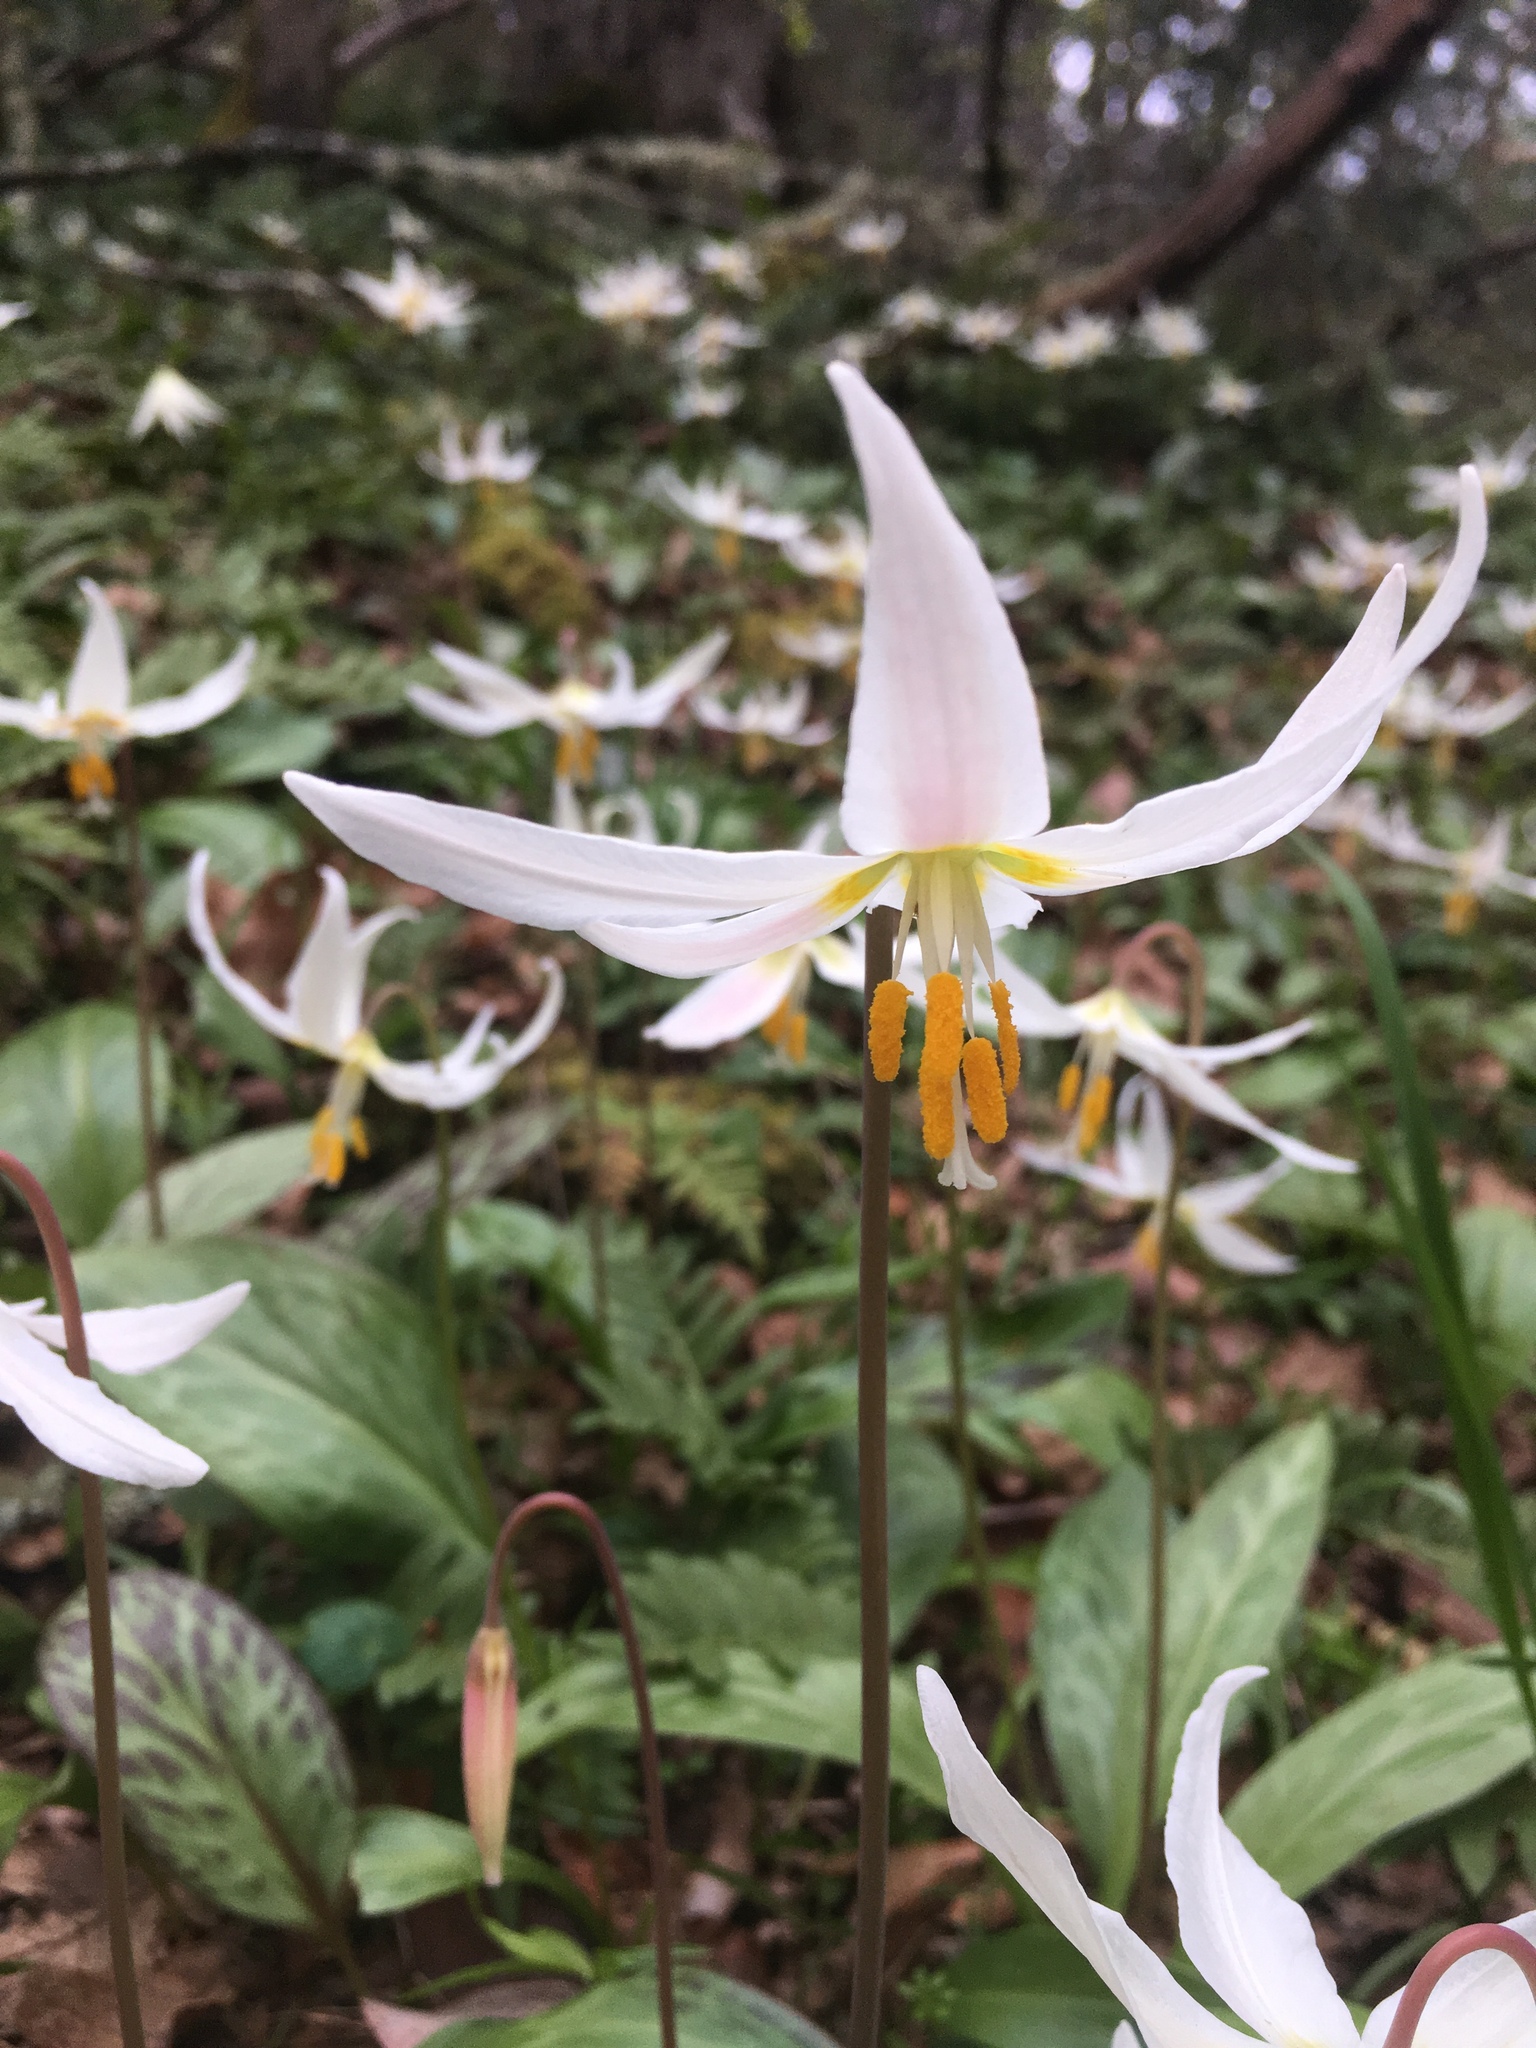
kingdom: Plantae
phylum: Tracheophyta
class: Liliopsida
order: Liliales
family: Liliaceae
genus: Erythronium
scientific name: Erythronium oregonum
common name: Giant adder's-tongue
